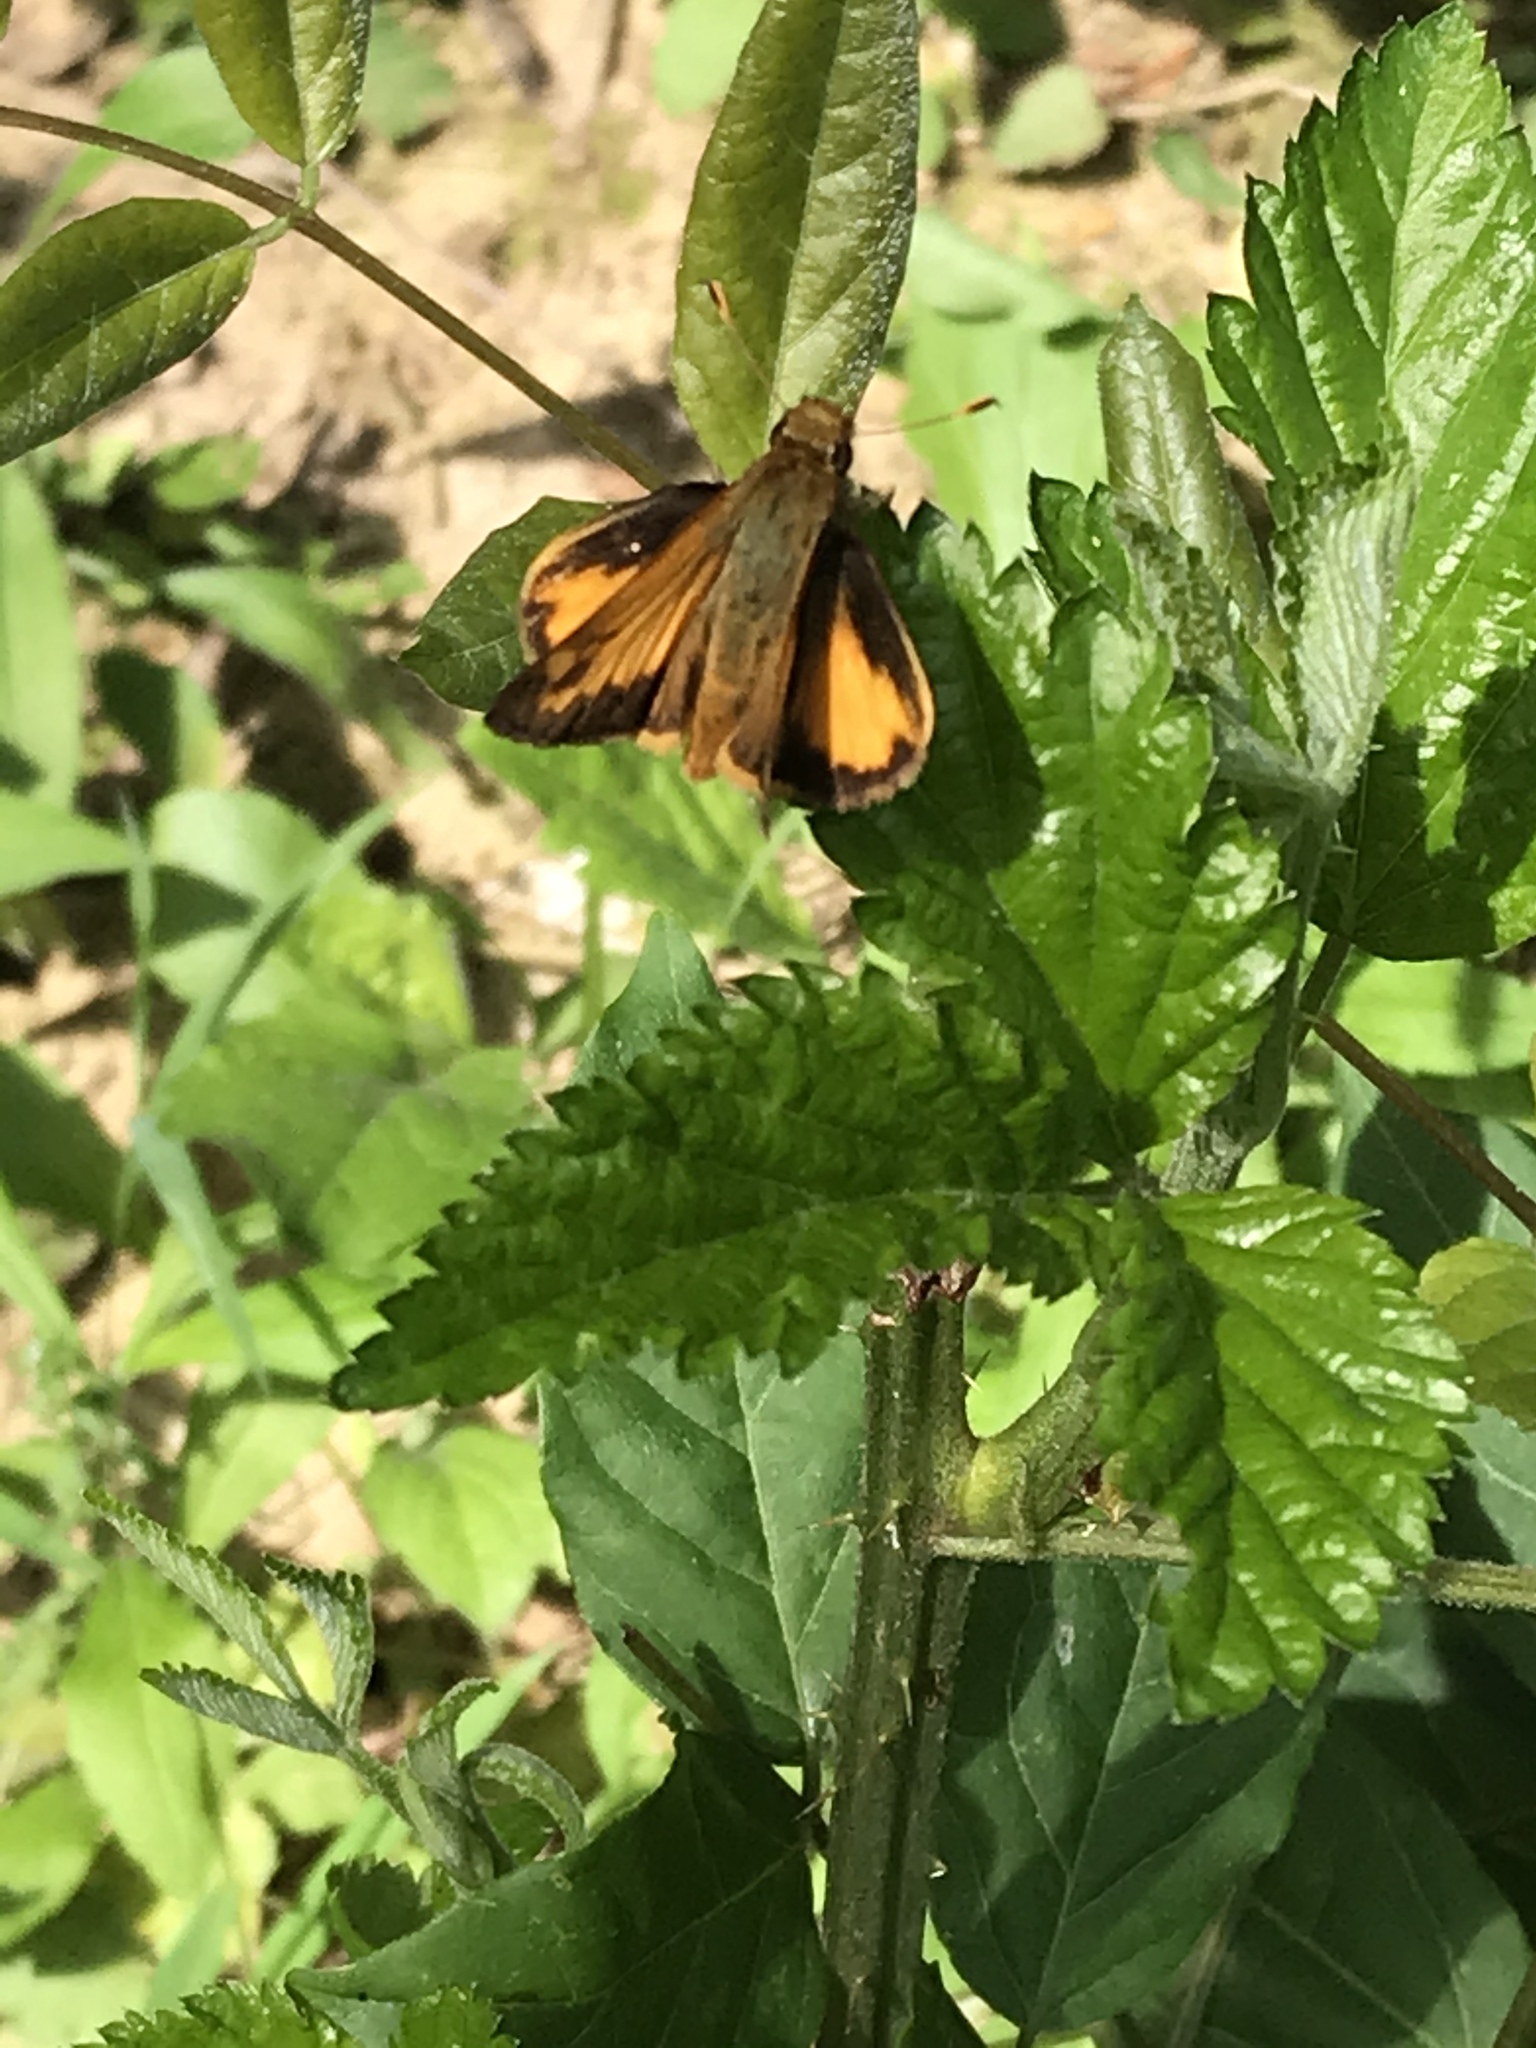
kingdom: Animalia
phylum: Arthropoda
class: Insecta
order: Lepidoptera
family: Hesperiidae
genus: Lon
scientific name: Lon zabulon
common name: Zabulon skipper
